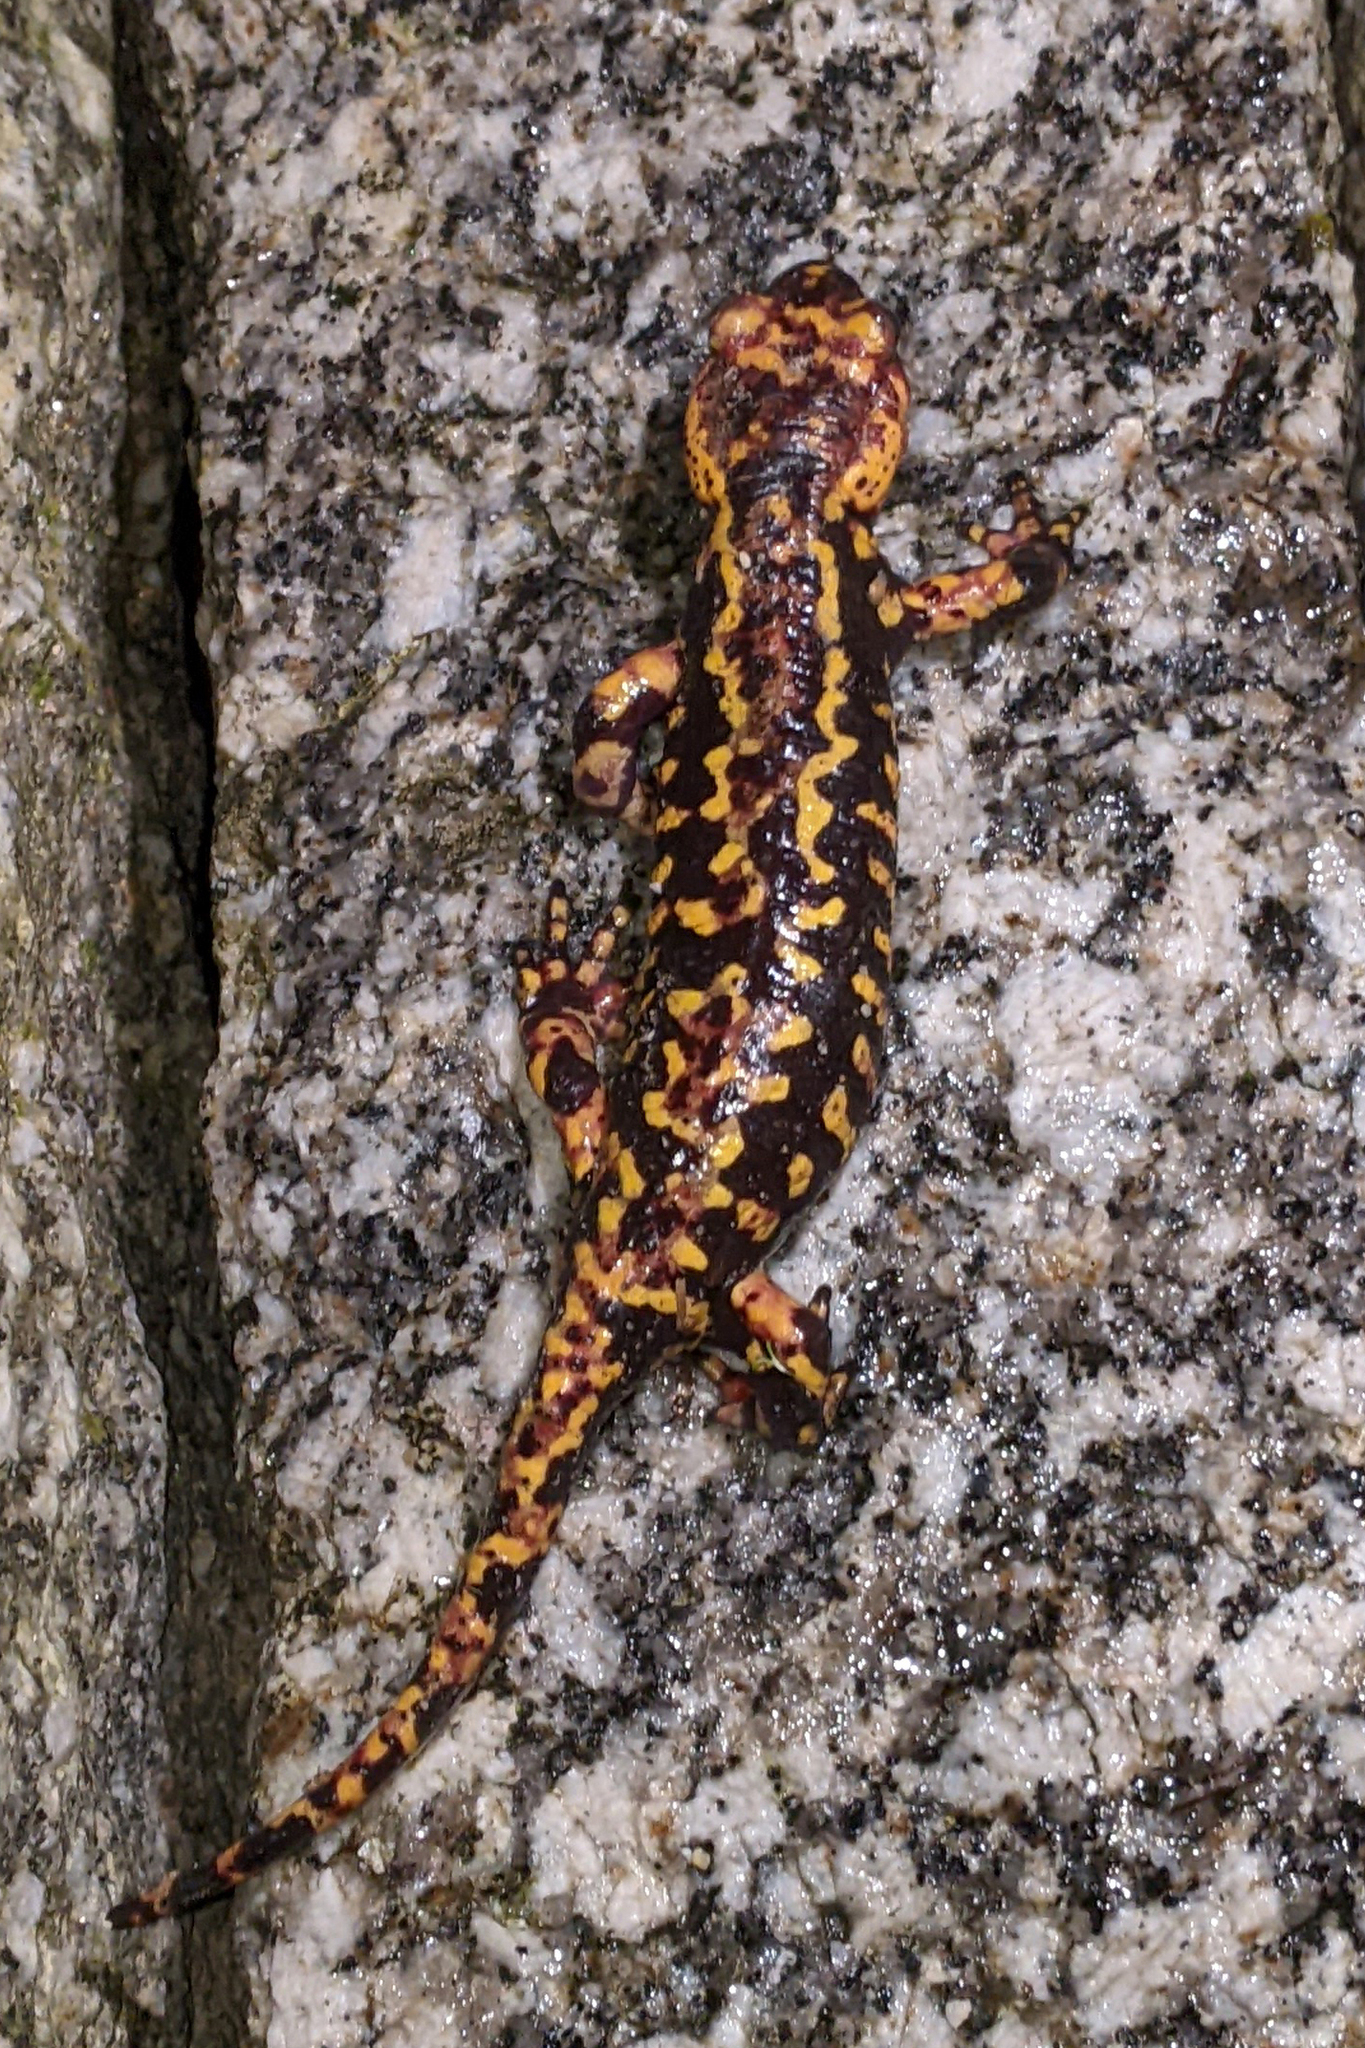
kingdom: Animalia
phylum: Chordata
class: Amphibia
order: Caudata
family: Salamandridae
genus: Salamandra
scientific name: Salamandra salamandra
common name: Fire salamander
